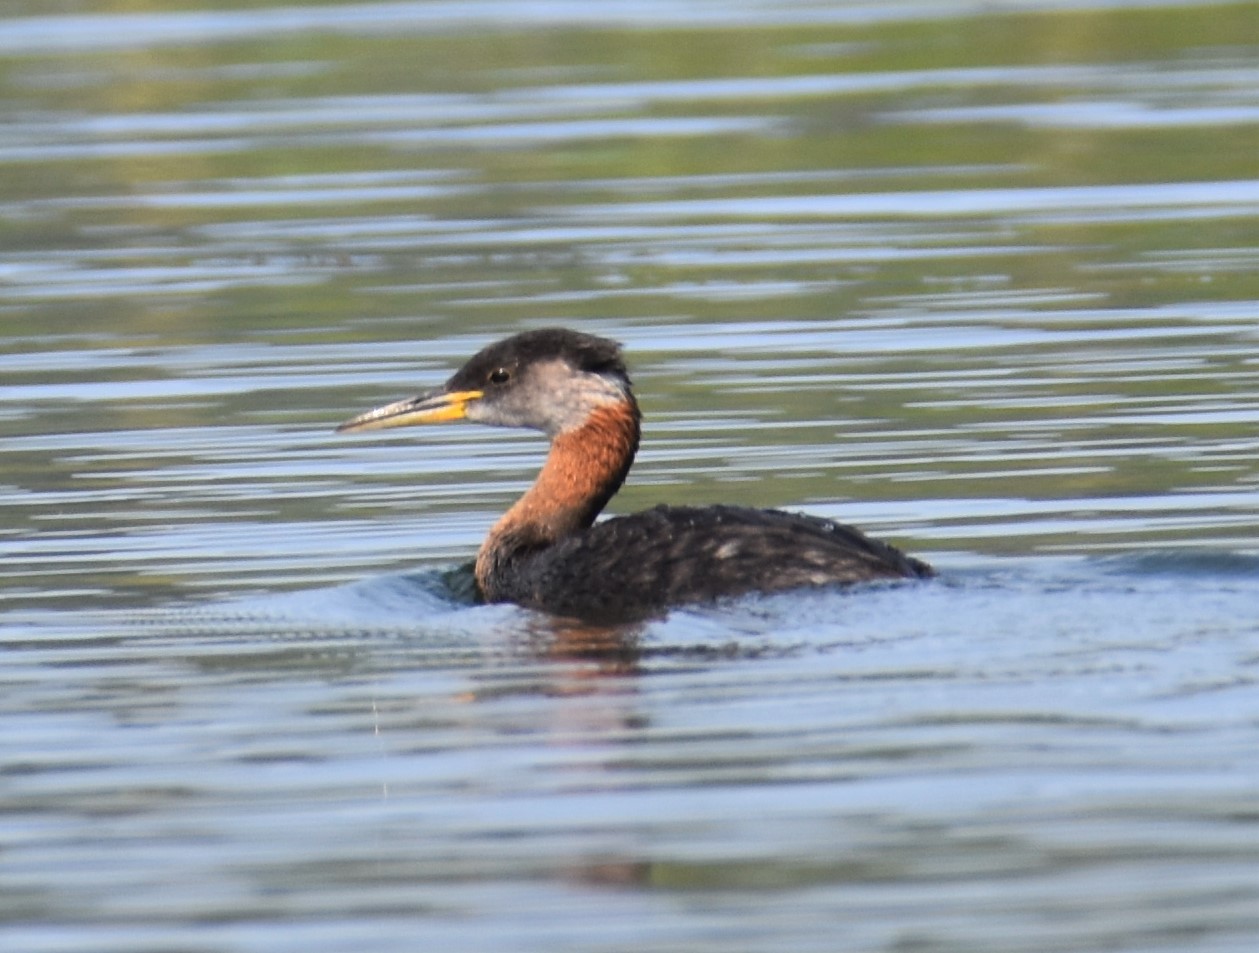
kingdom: Animalia
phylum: Chordata
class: Aves
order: Podicipediformes
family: Podicipedidae
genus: Podiceps
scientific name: Podiceps grisegena
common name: Red-necked grebe
